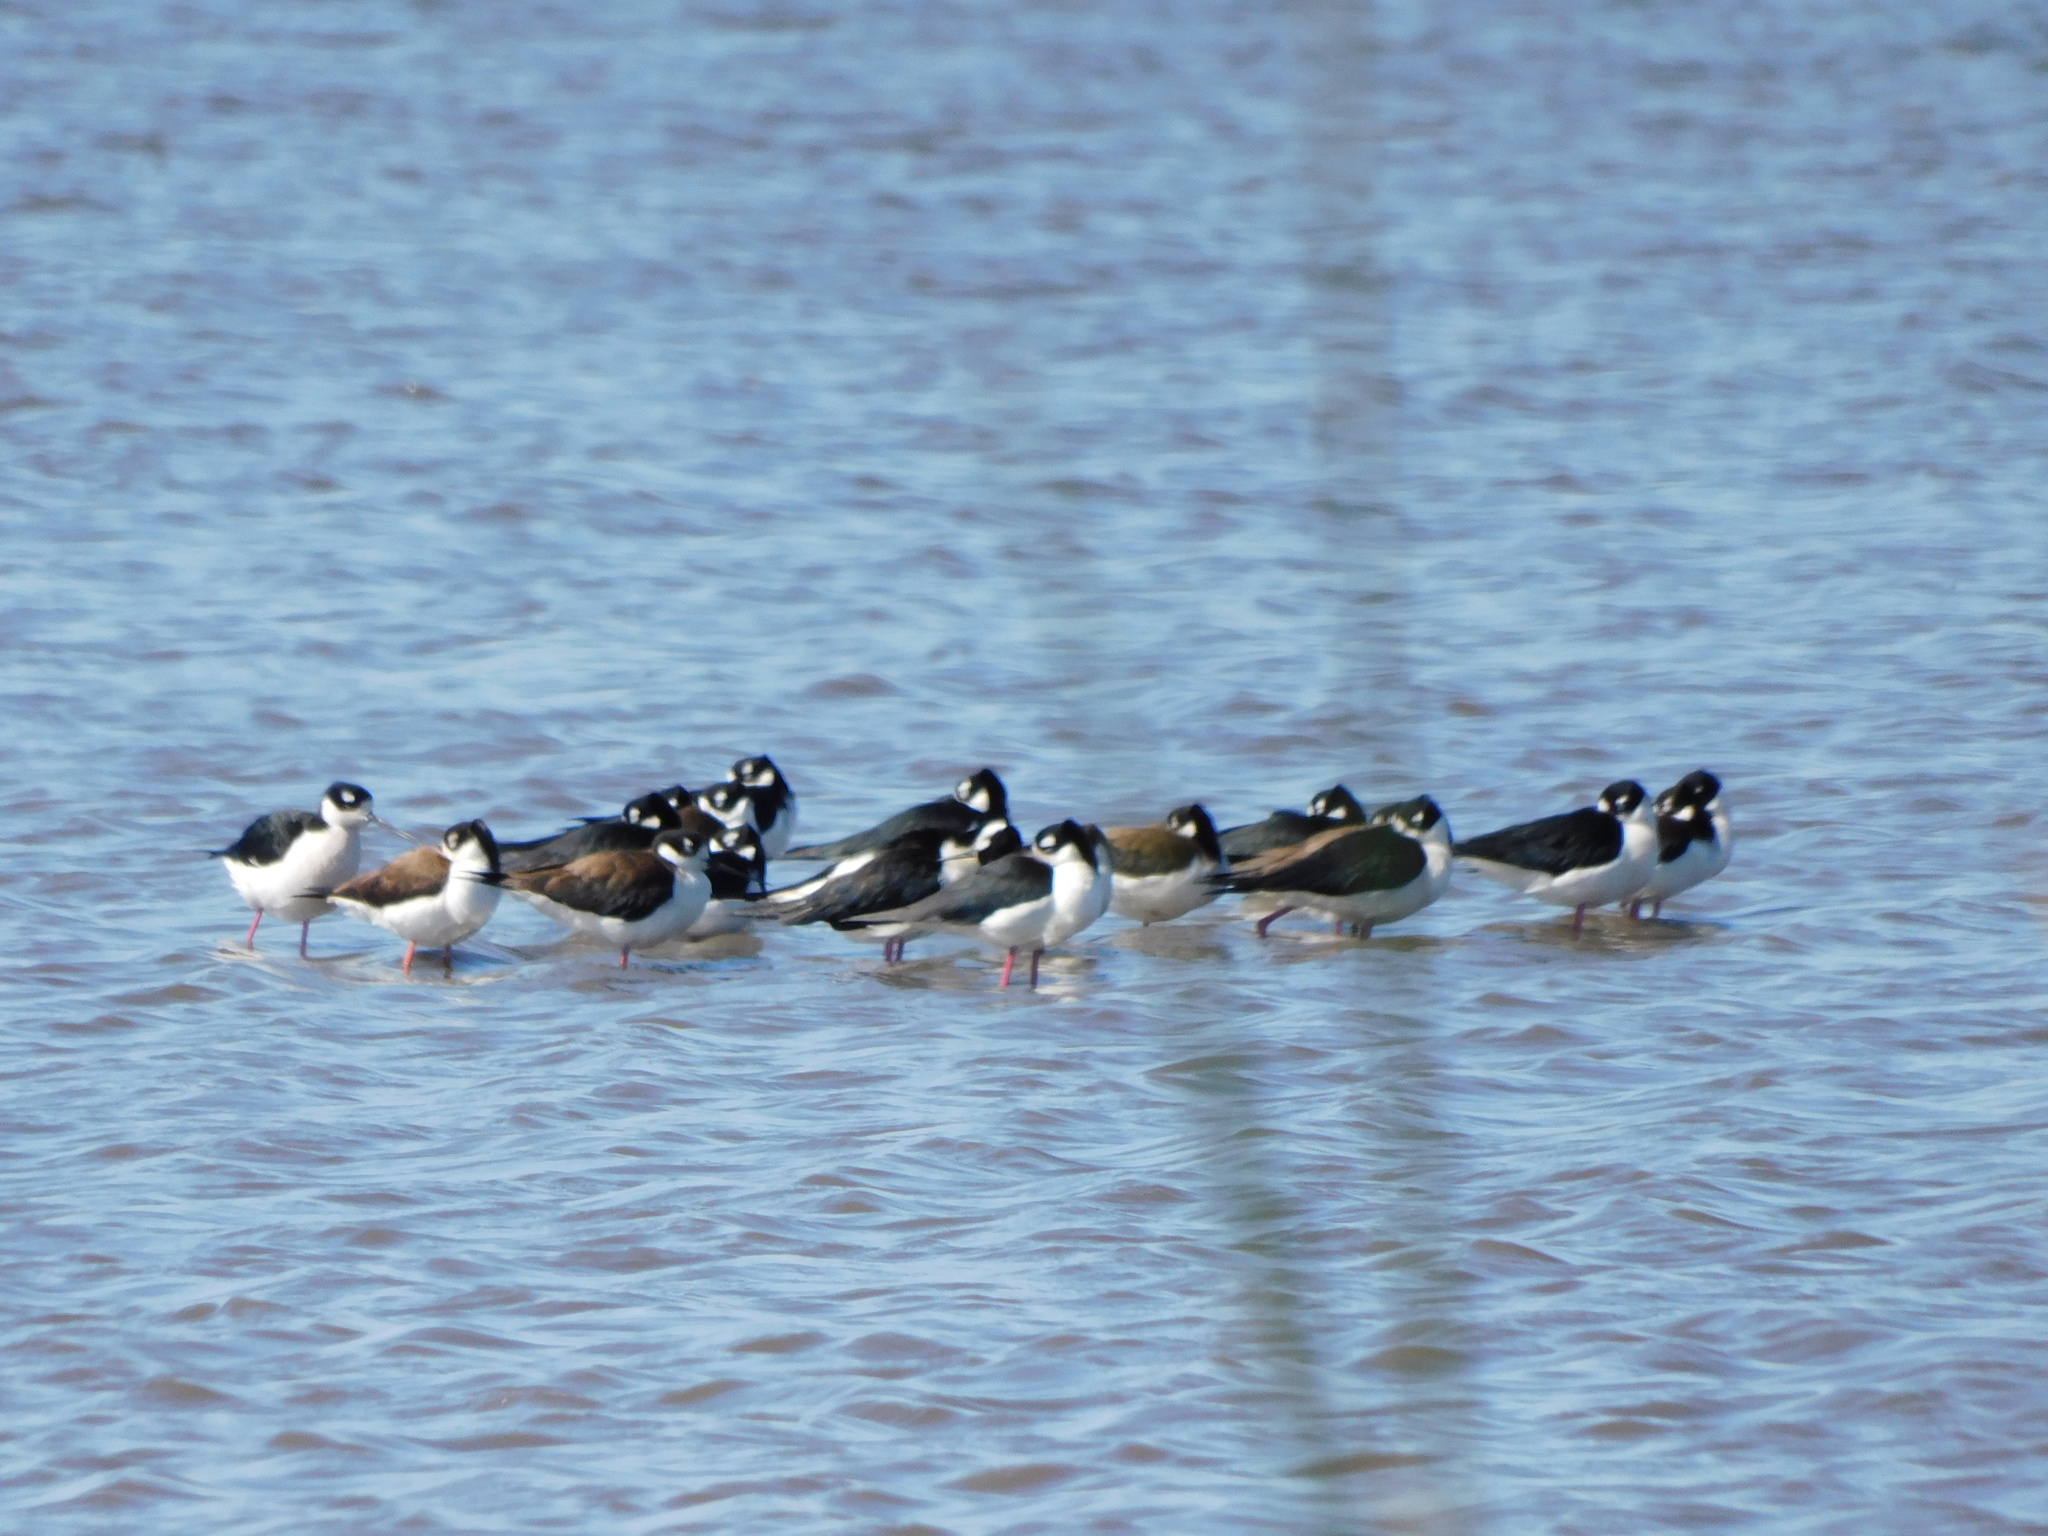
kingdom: Animalia
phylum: Chordata
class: Aves
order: Charadriiformes
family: Recurvirostridae
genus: Himantopus
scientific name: Himantopus mexicanus
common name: Black-necked stilt
